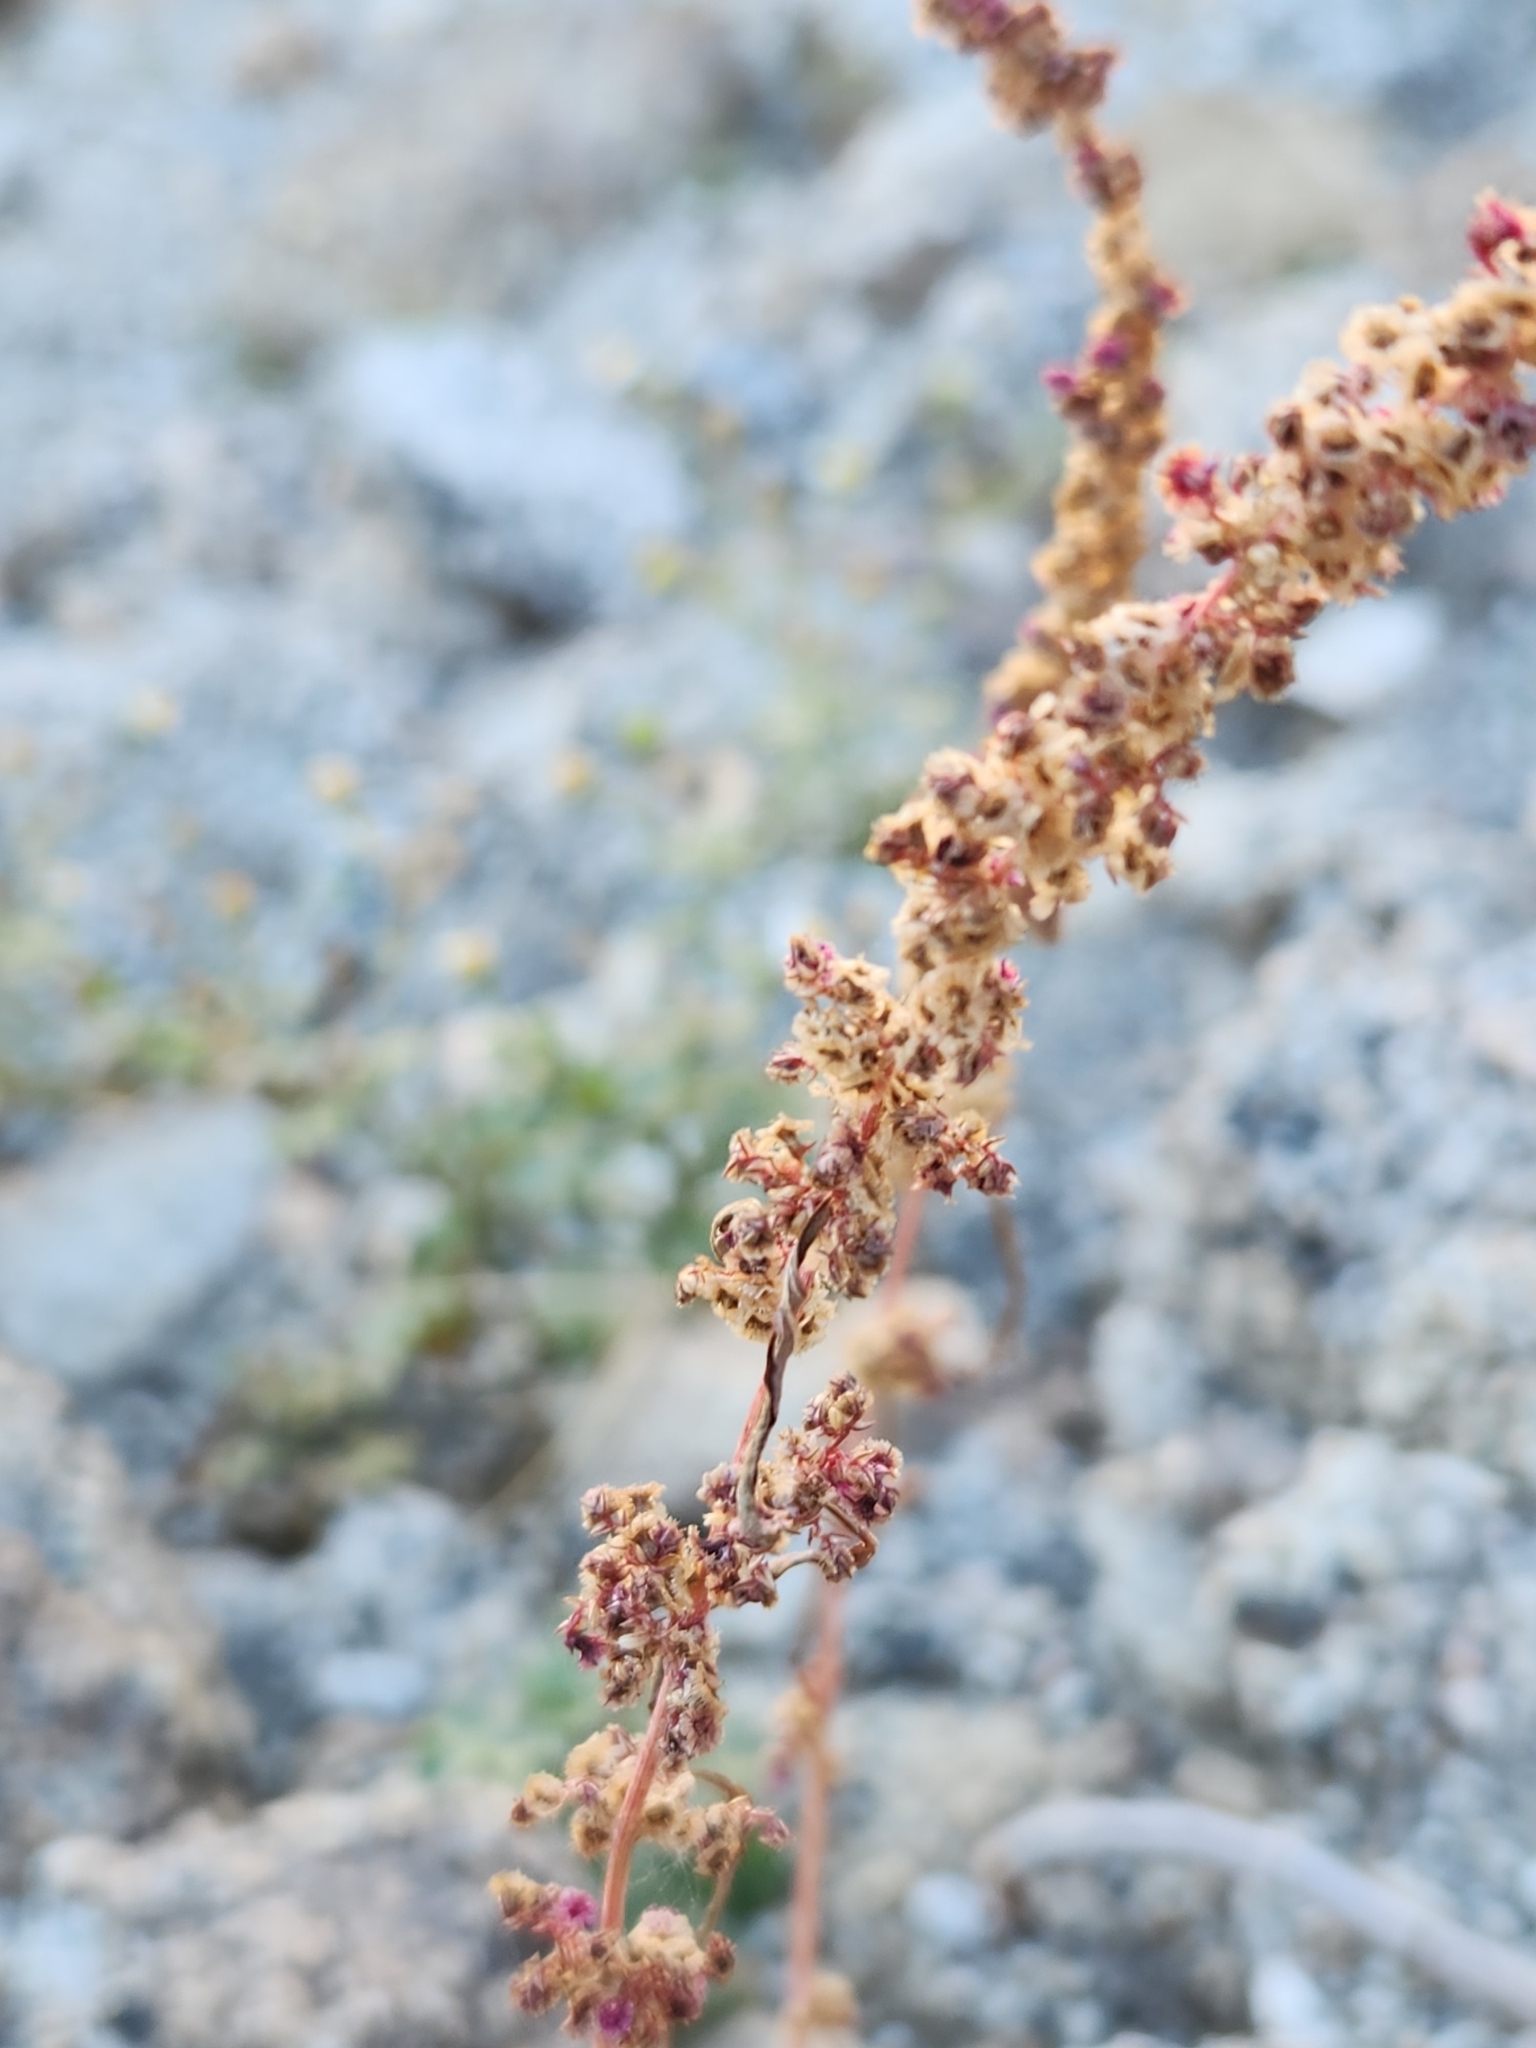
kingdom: Plantae
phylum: Tracheophyta
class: Magnoliopsida
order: Caryophyllales
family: Amaranthaceae
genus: Amaranthus
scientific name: Amaranthus fimbriatus
